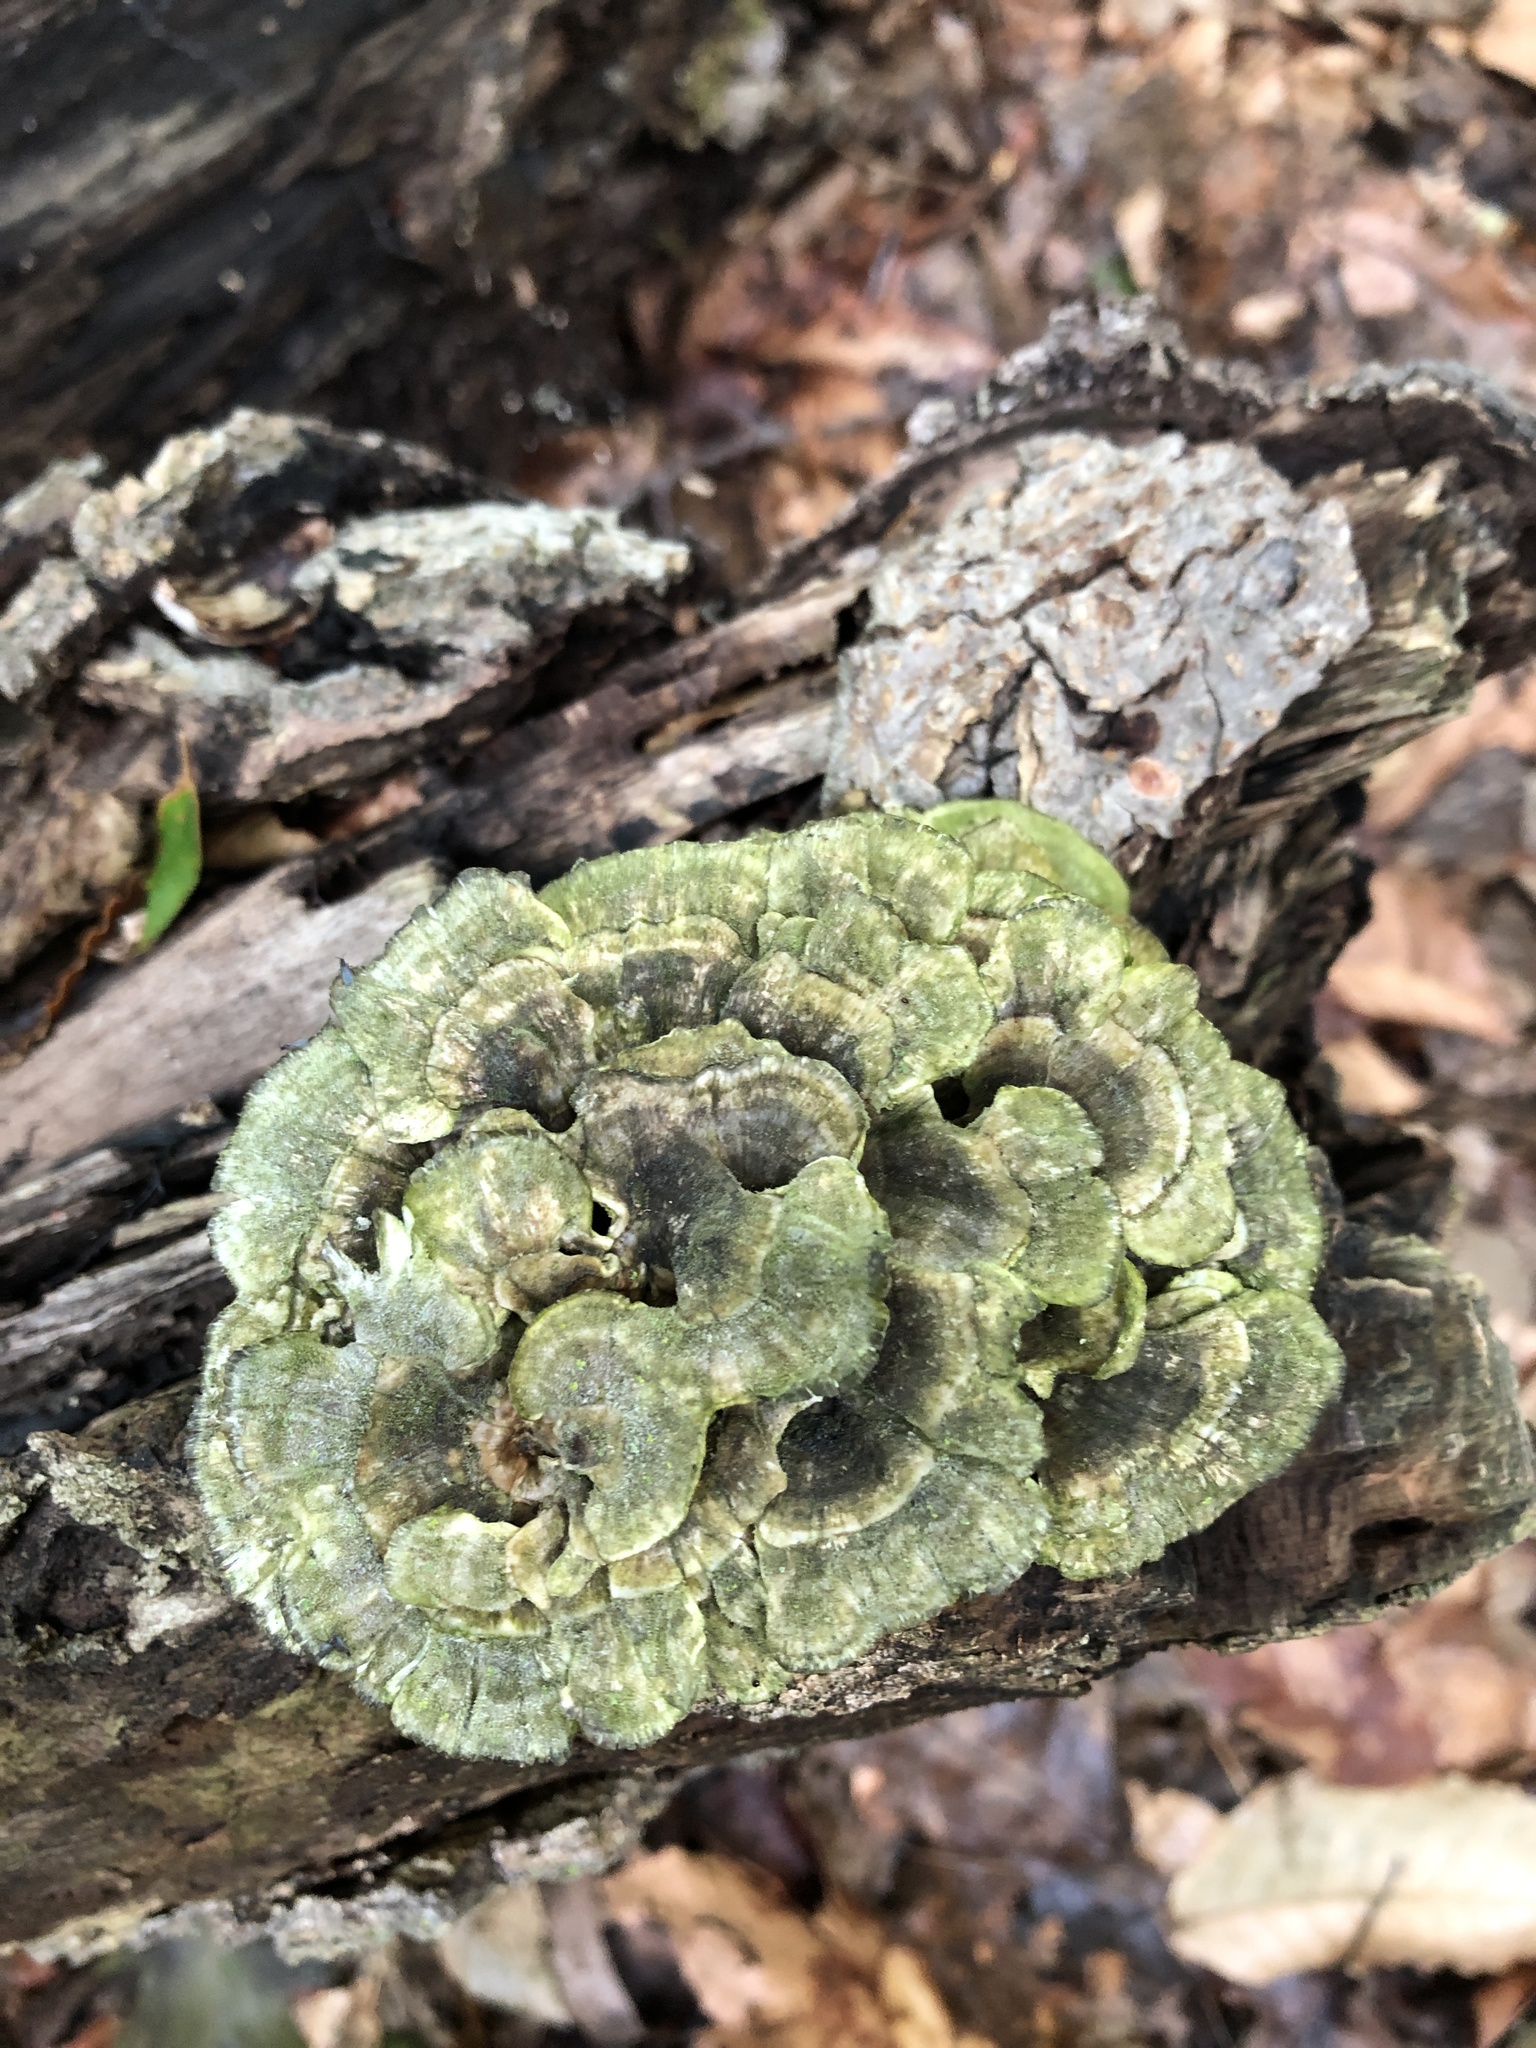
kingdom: Fungi
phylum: Basidiomycota
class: Agaricomycetes
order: Polyporales
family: Polyporaceae
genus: Trametes
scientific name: Trametes versicolor
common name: Turkeytail
